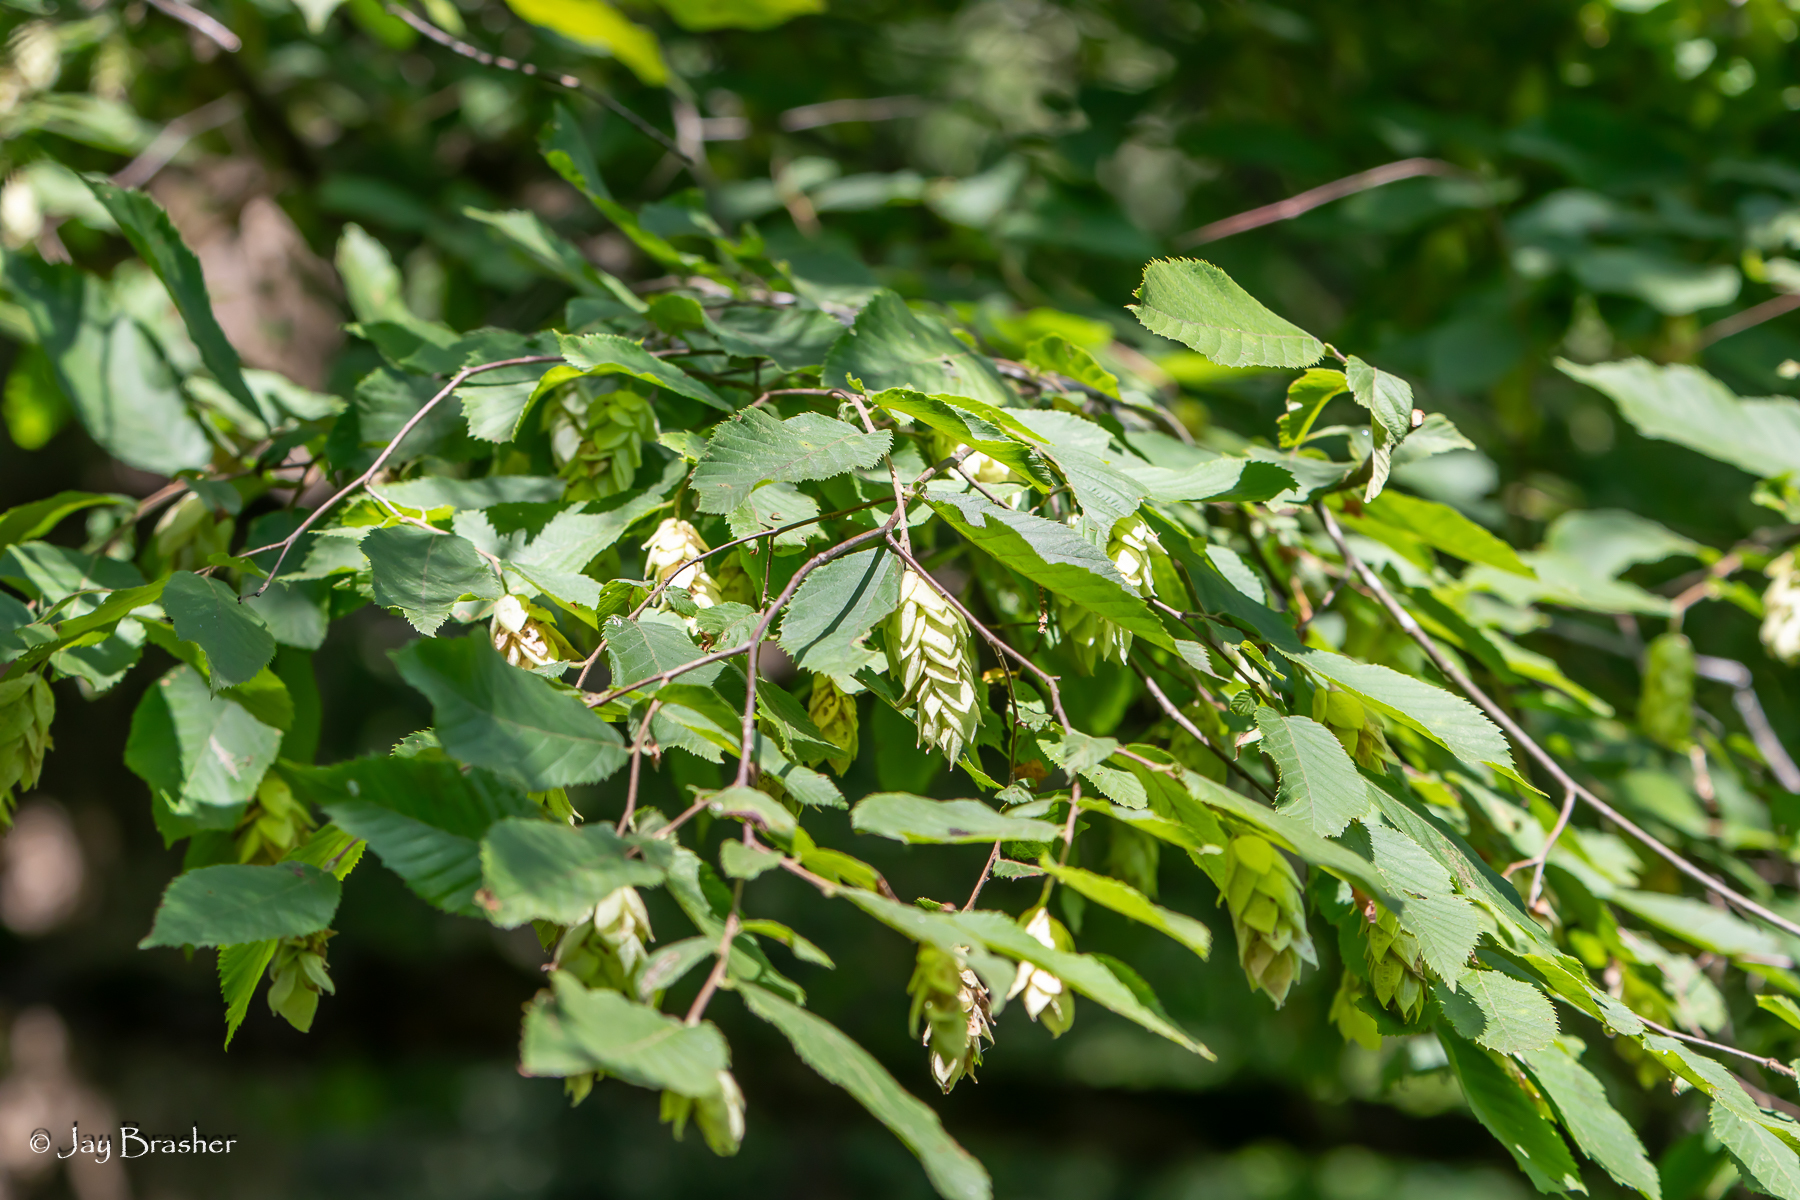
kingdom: Plantae
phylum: Tracheophyta
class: Magnoliopsida
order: Fagales
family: Betulaceae
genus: Ostrya
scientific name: Ostrya virginiana
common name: Ironwood
